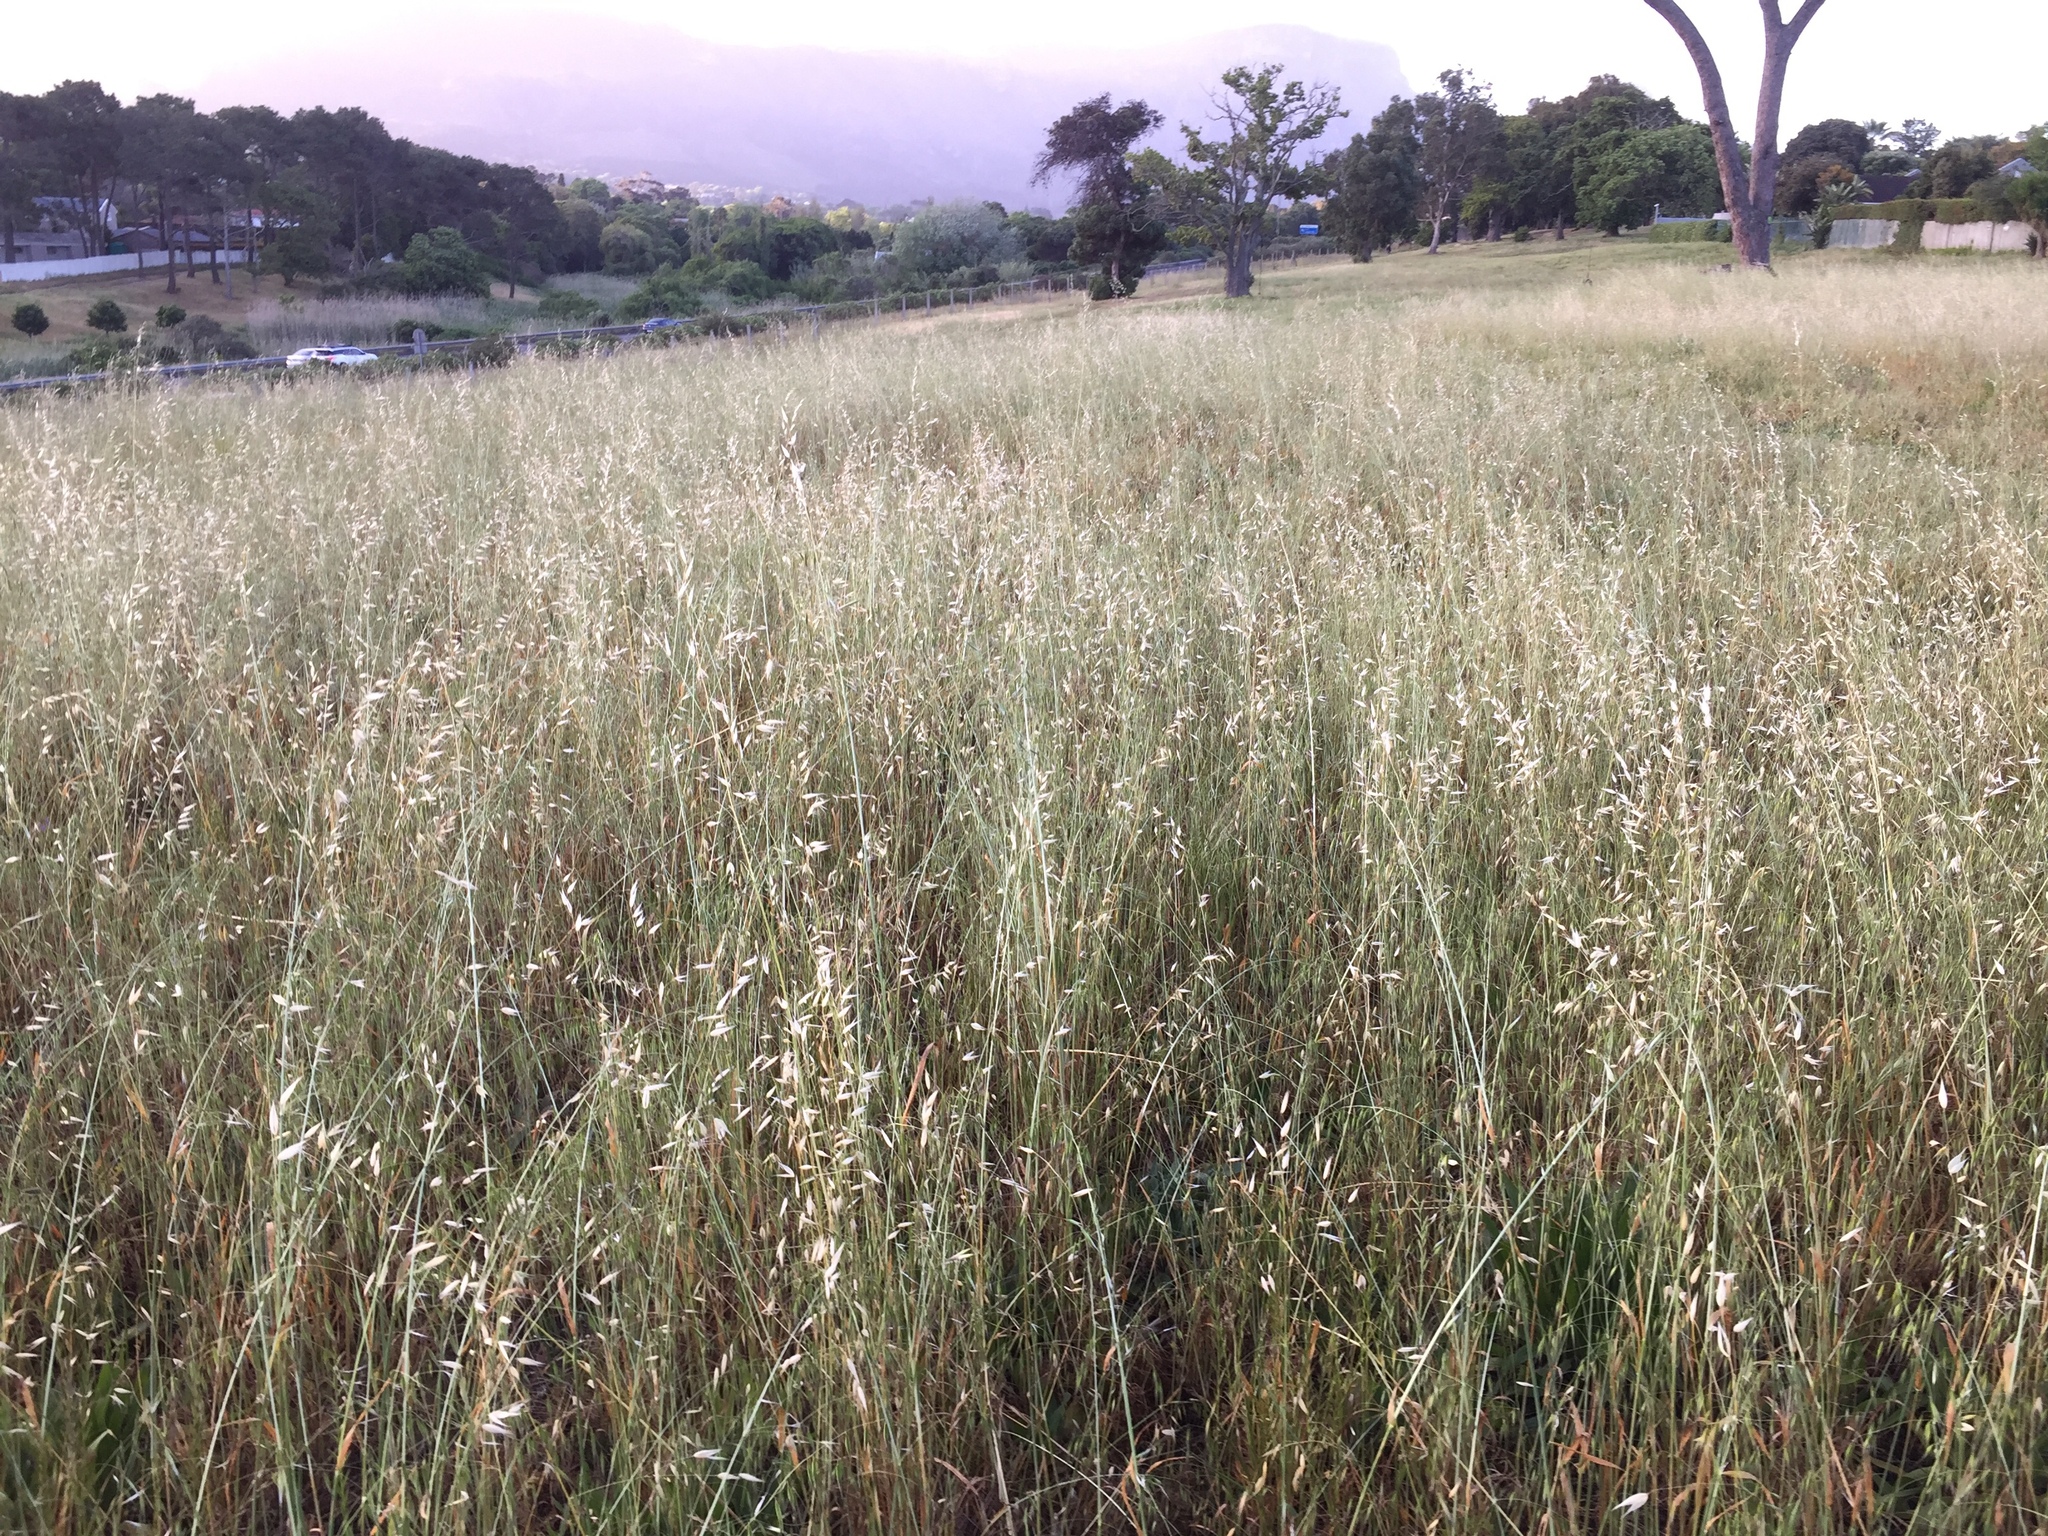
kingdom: Plantae
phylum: Tracheophyta
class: Liliopsida
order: Poales
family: Poaceae
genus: Avena
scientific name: Avena fatua
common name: Wild oat
